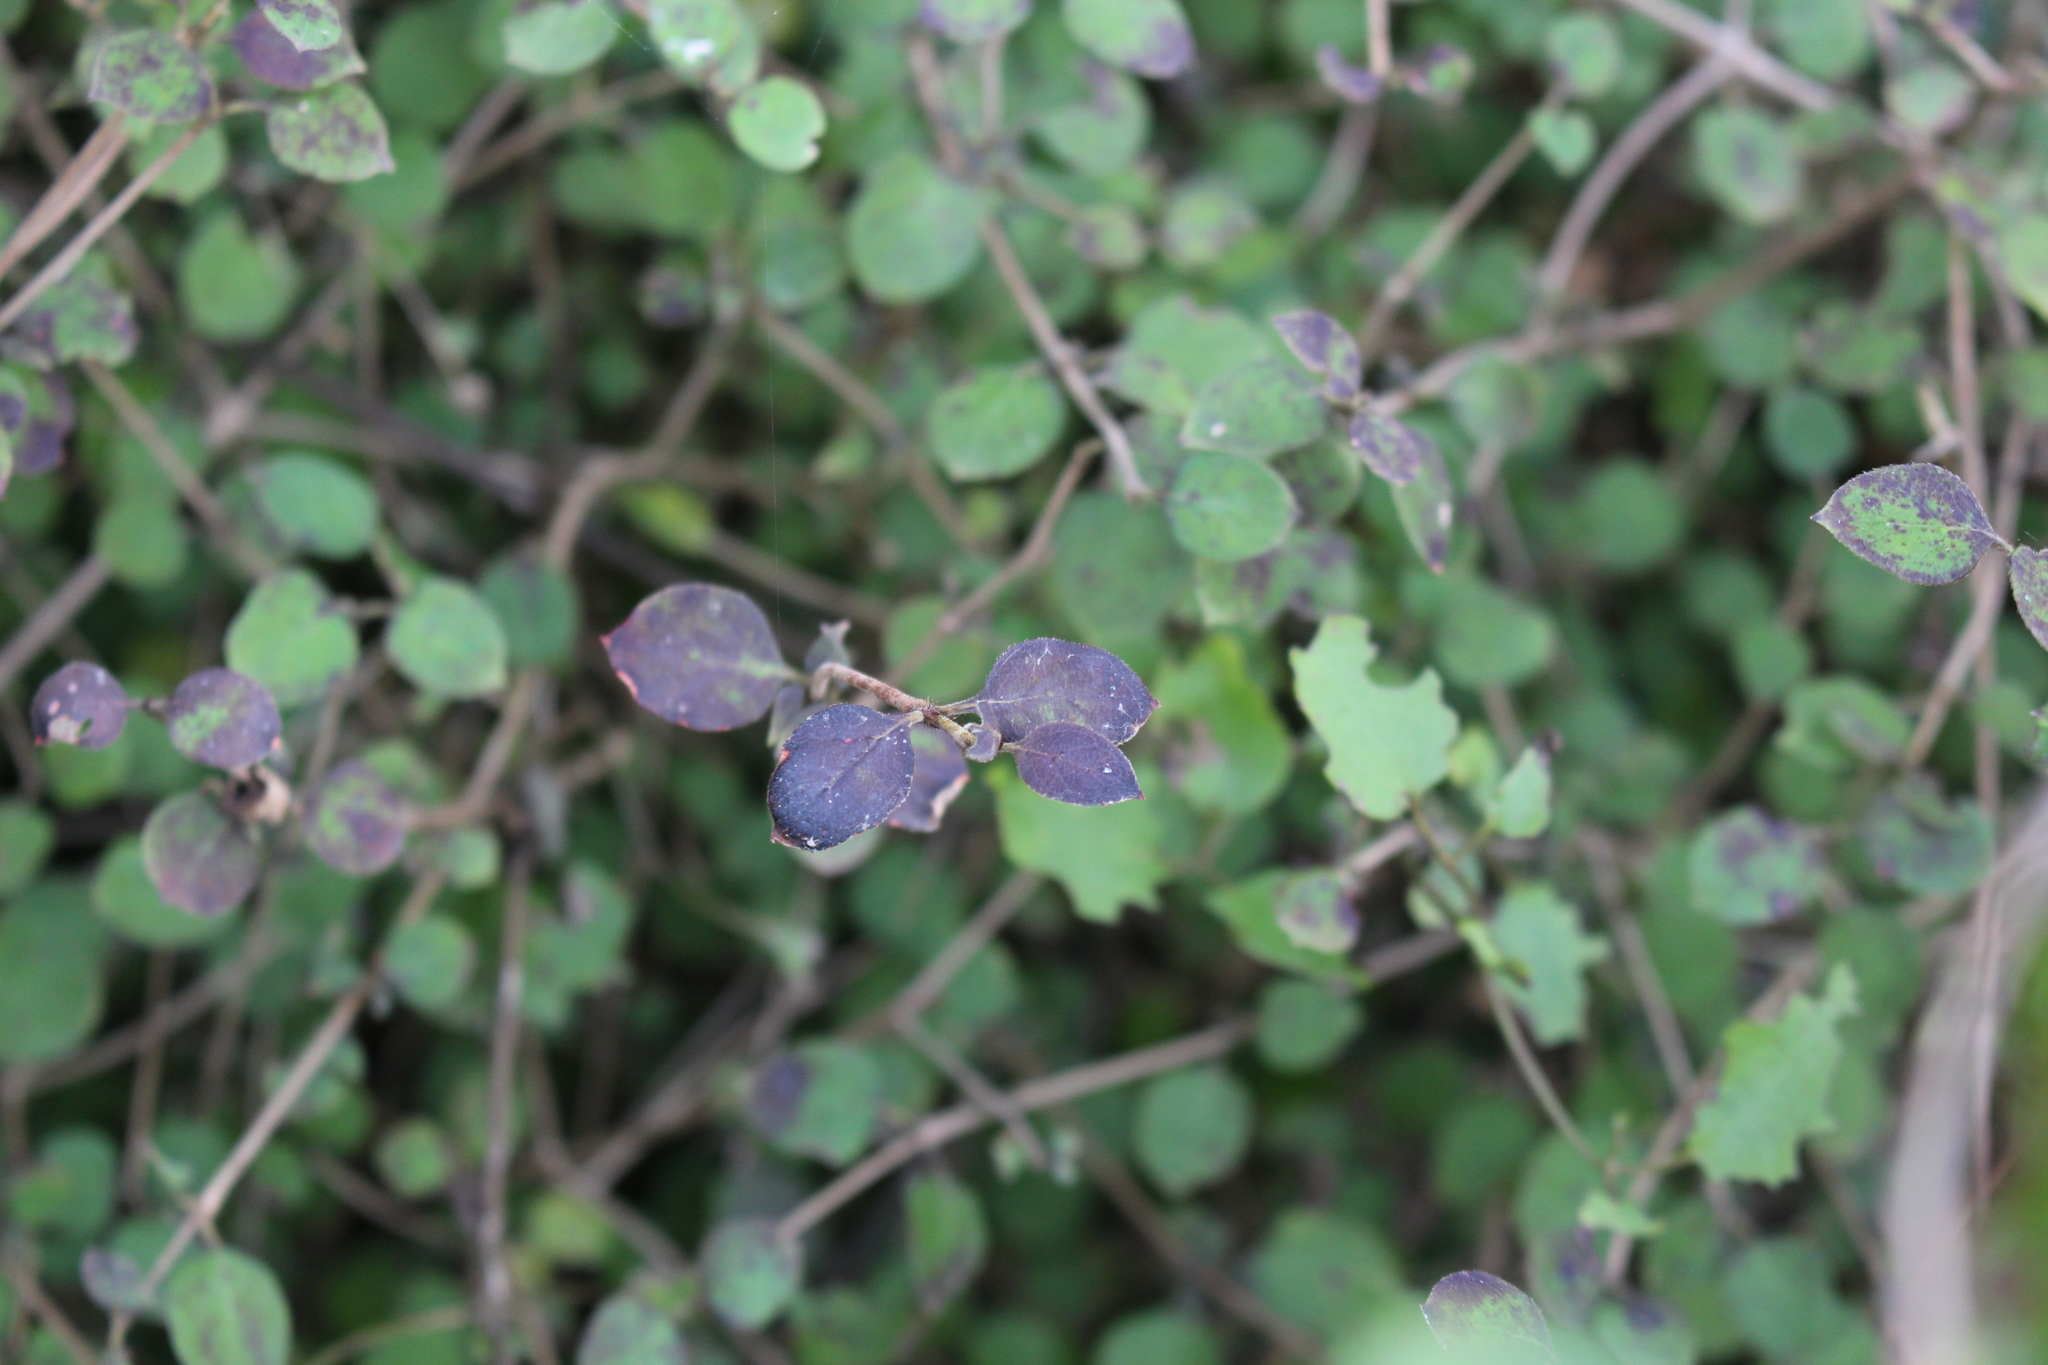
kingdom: Plantae
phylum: Tracheophyta
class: Magnoliopsida
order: Gentianales
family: Rubiaceae
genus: Coprosma
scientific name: Coprosma rotundifolia
